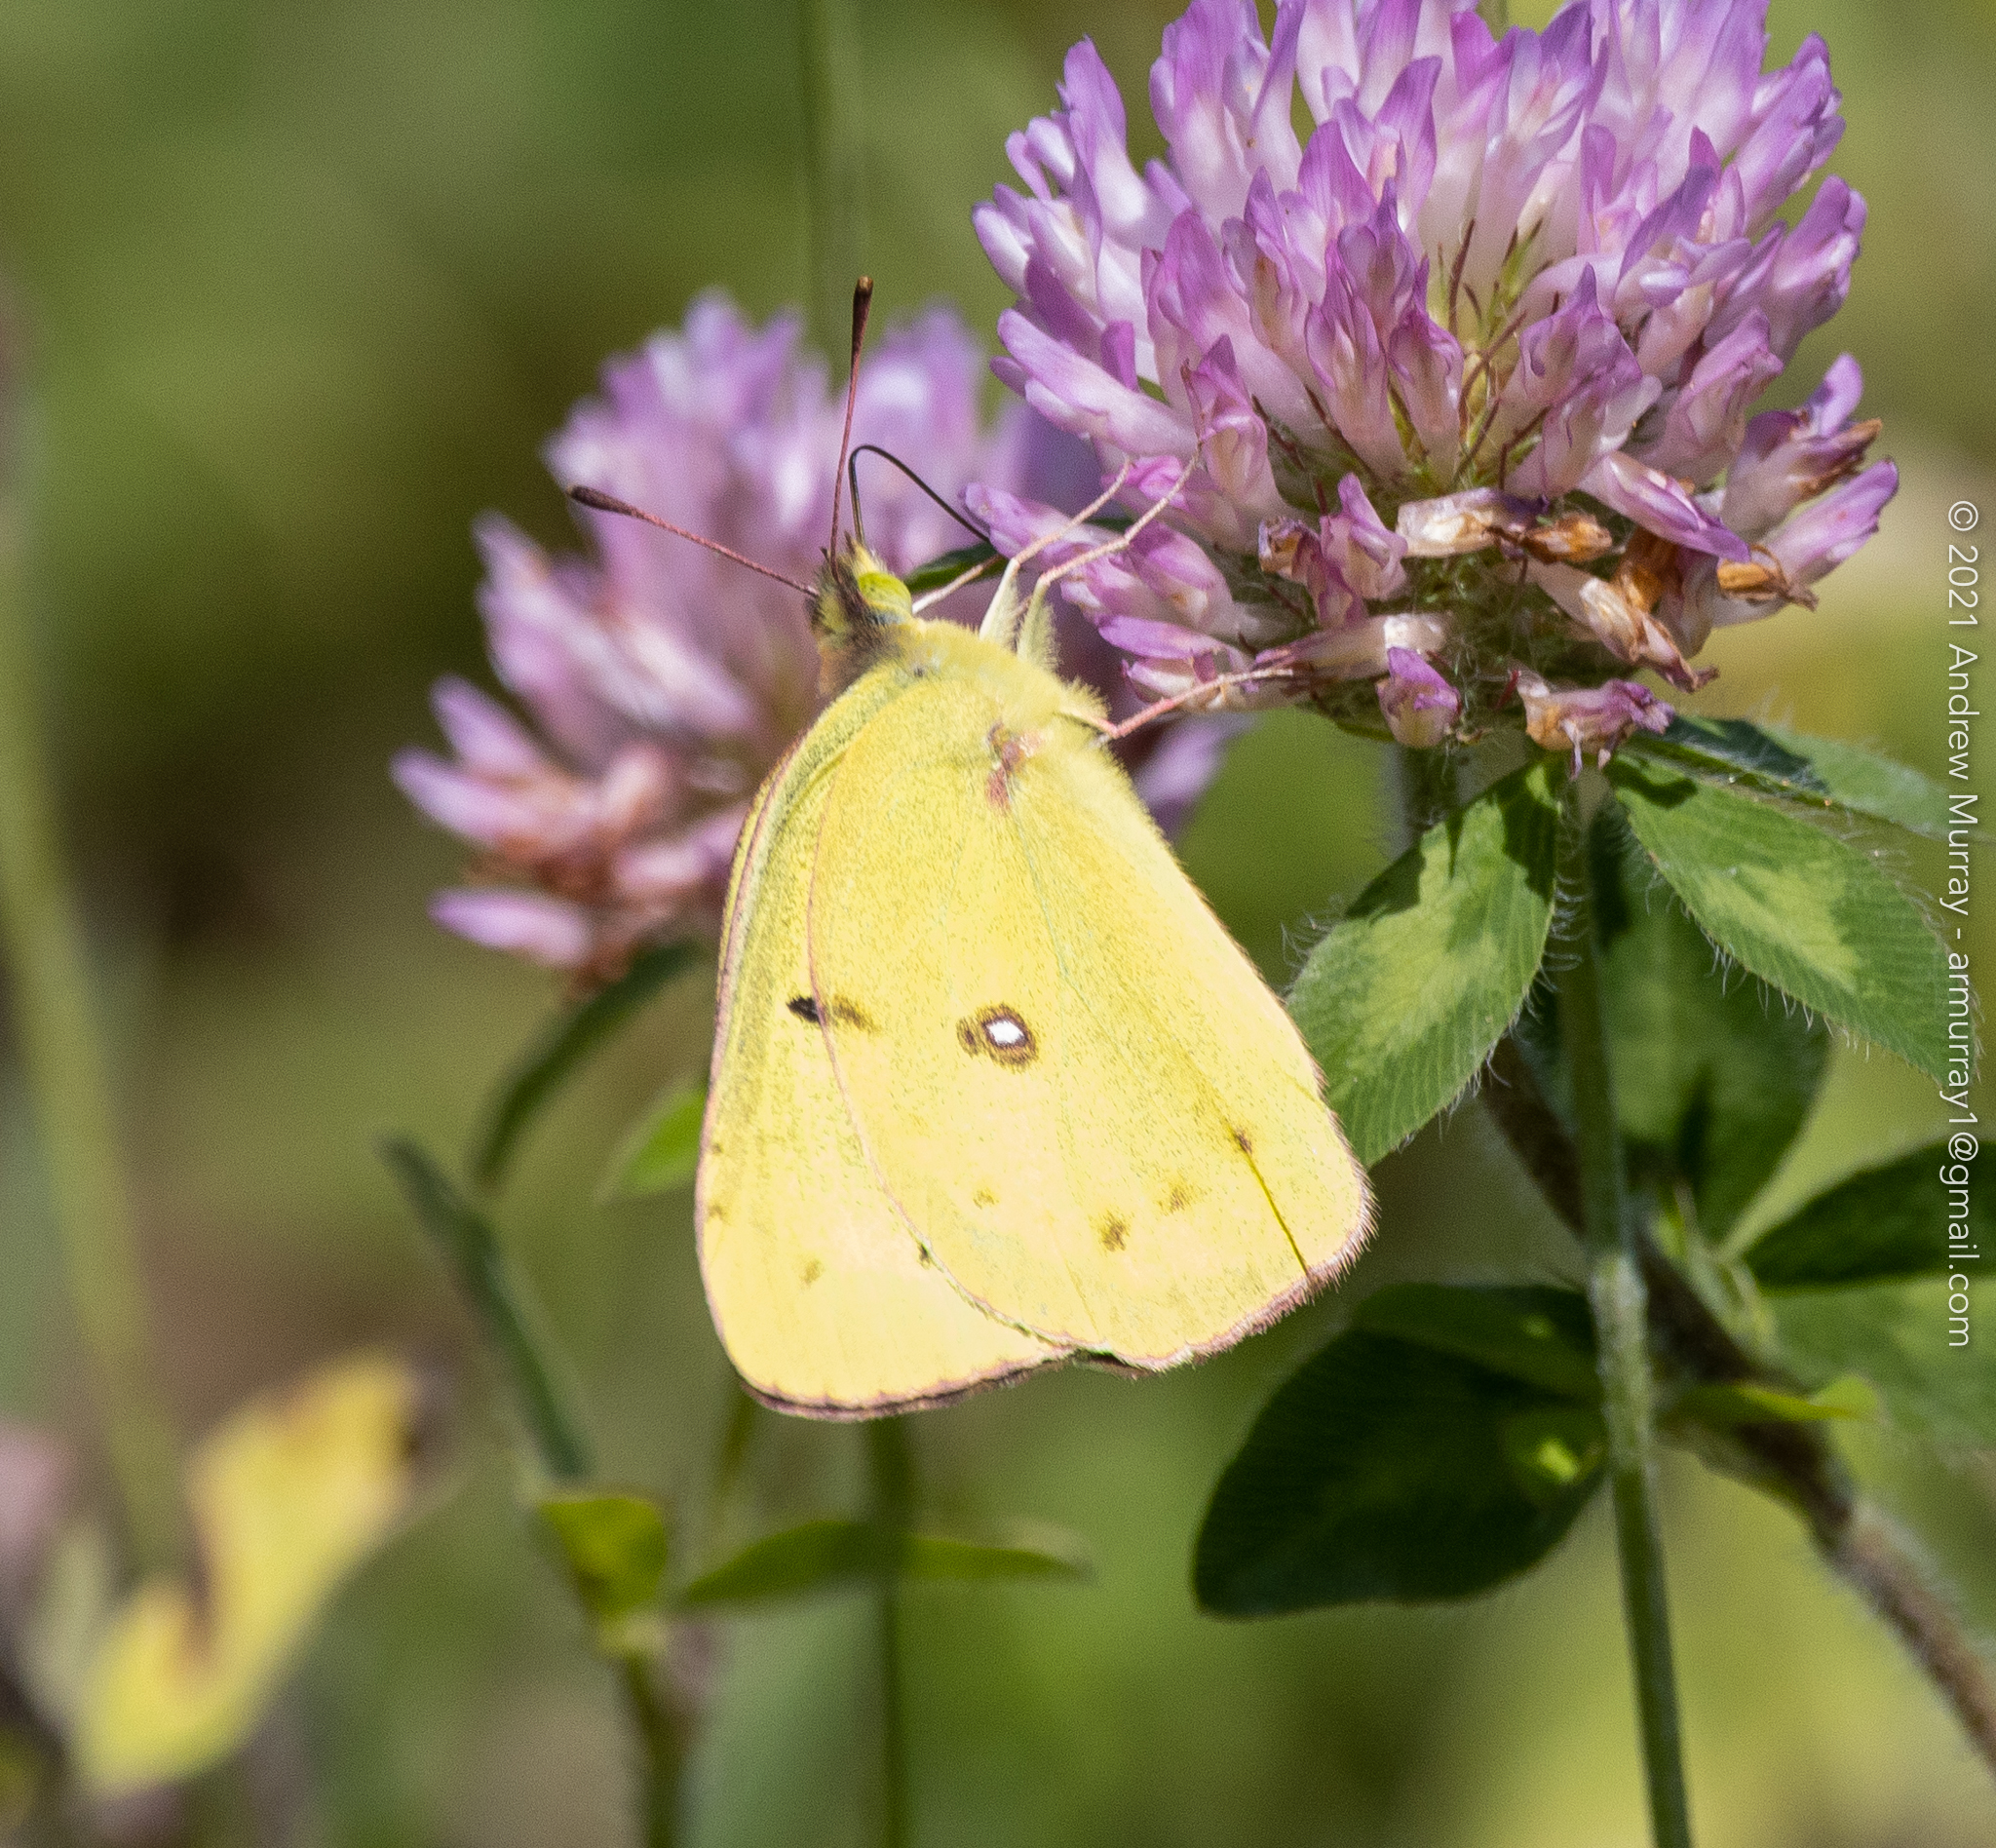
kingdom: Animalia
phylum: Arthropoda
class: Insecta
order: Lepidoptera
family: Pieridae
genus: Colias
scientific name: Colias philodice
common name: Clouded sulphur
